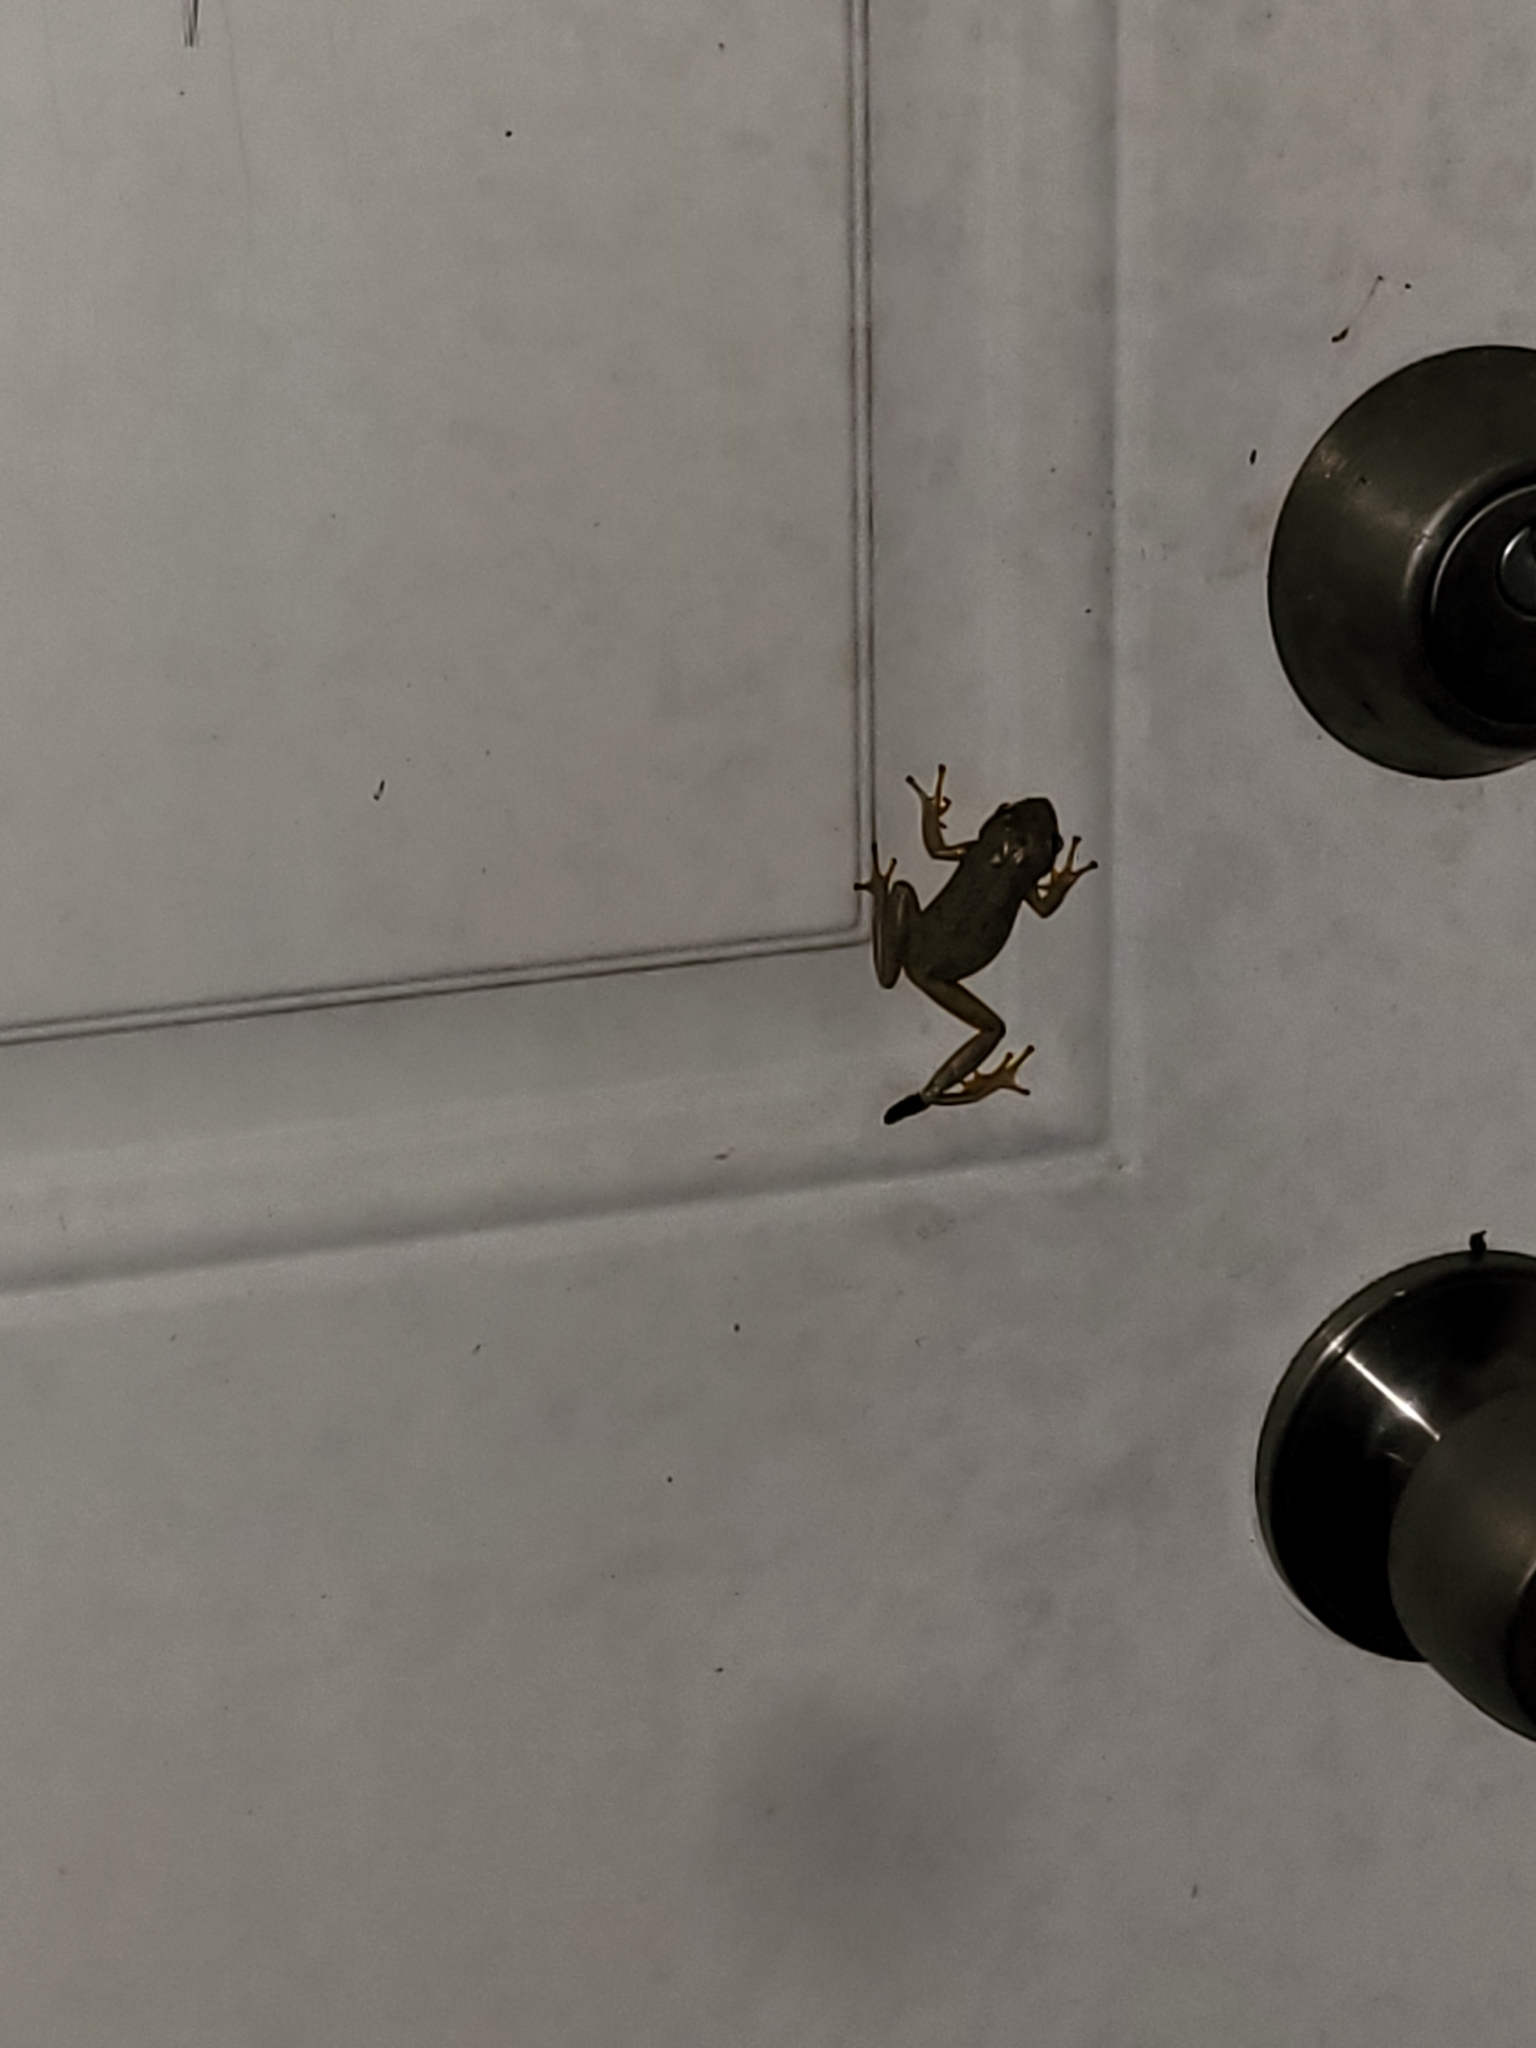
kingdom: Animalia
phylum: Chordata
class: Amphibia
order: Anura
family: Hylidae
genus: Dryophytes
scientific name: Dryophytes squirellus
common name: Squirrel treefrog
